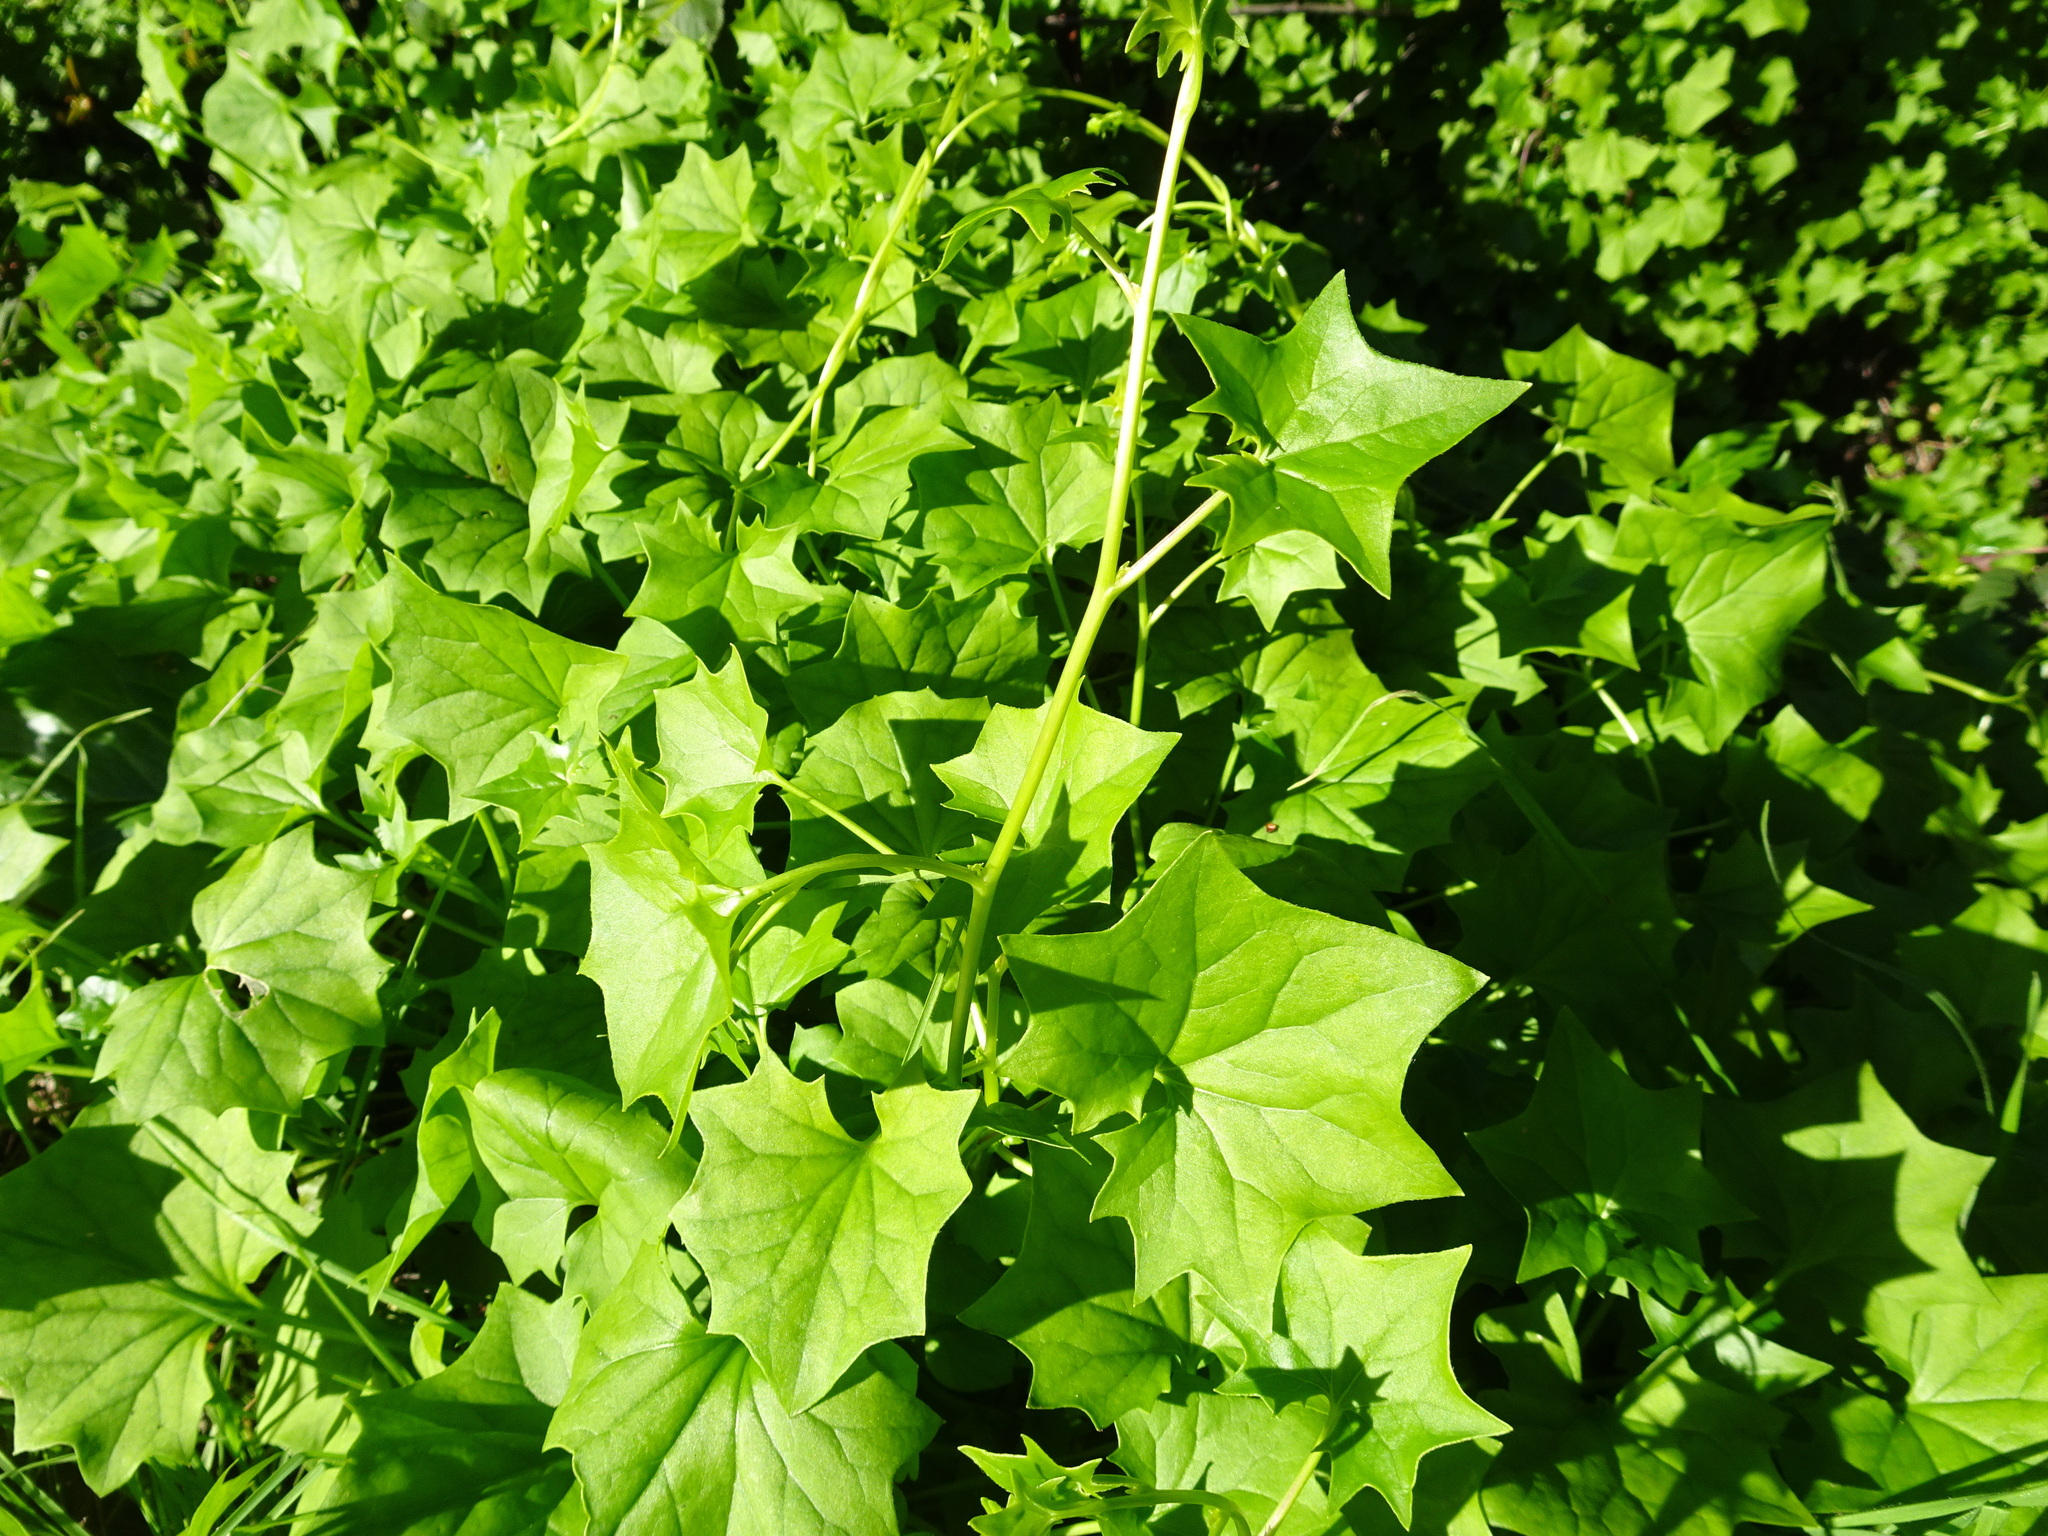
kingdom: Plantae
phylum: Tracheophyta
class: Magnoliopsida
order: Asterales
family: Asteraceae
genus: Delairea
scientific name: Delairea odorata
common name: Cape-ivy
